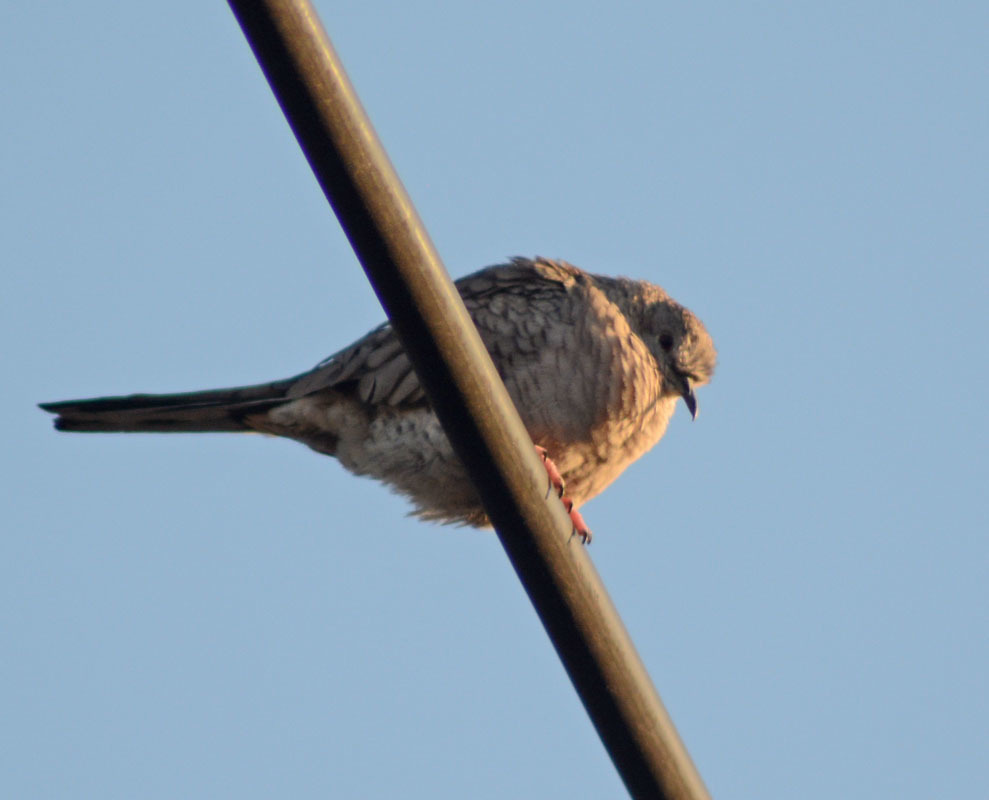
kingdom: Animalia
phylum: Chordata
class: Aves
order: Columbiformes
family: Columbidae
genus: Columbina
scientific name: Columbina inca
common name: Inca dove
